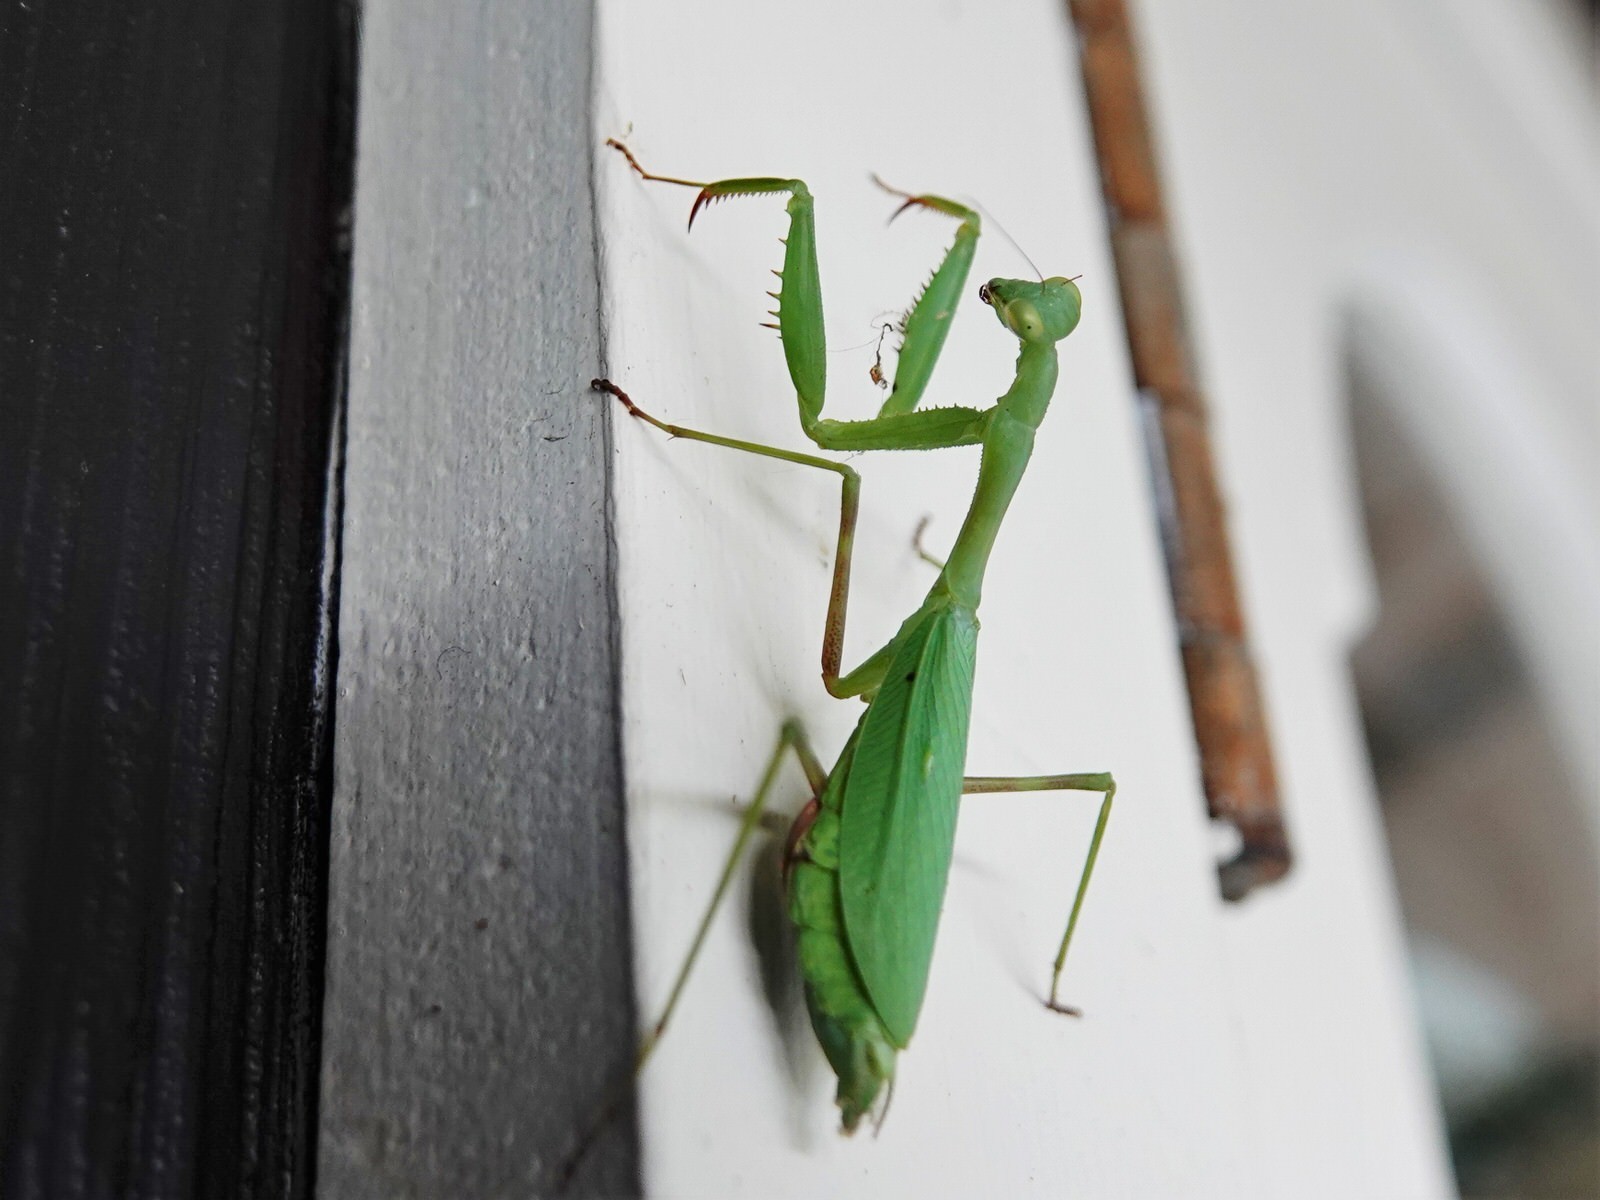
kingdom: Animalia
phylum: Arthropoda
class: Insecta
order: Mantodea
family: Miomantidae
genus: Miomantis
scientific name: Miomantis caffra
